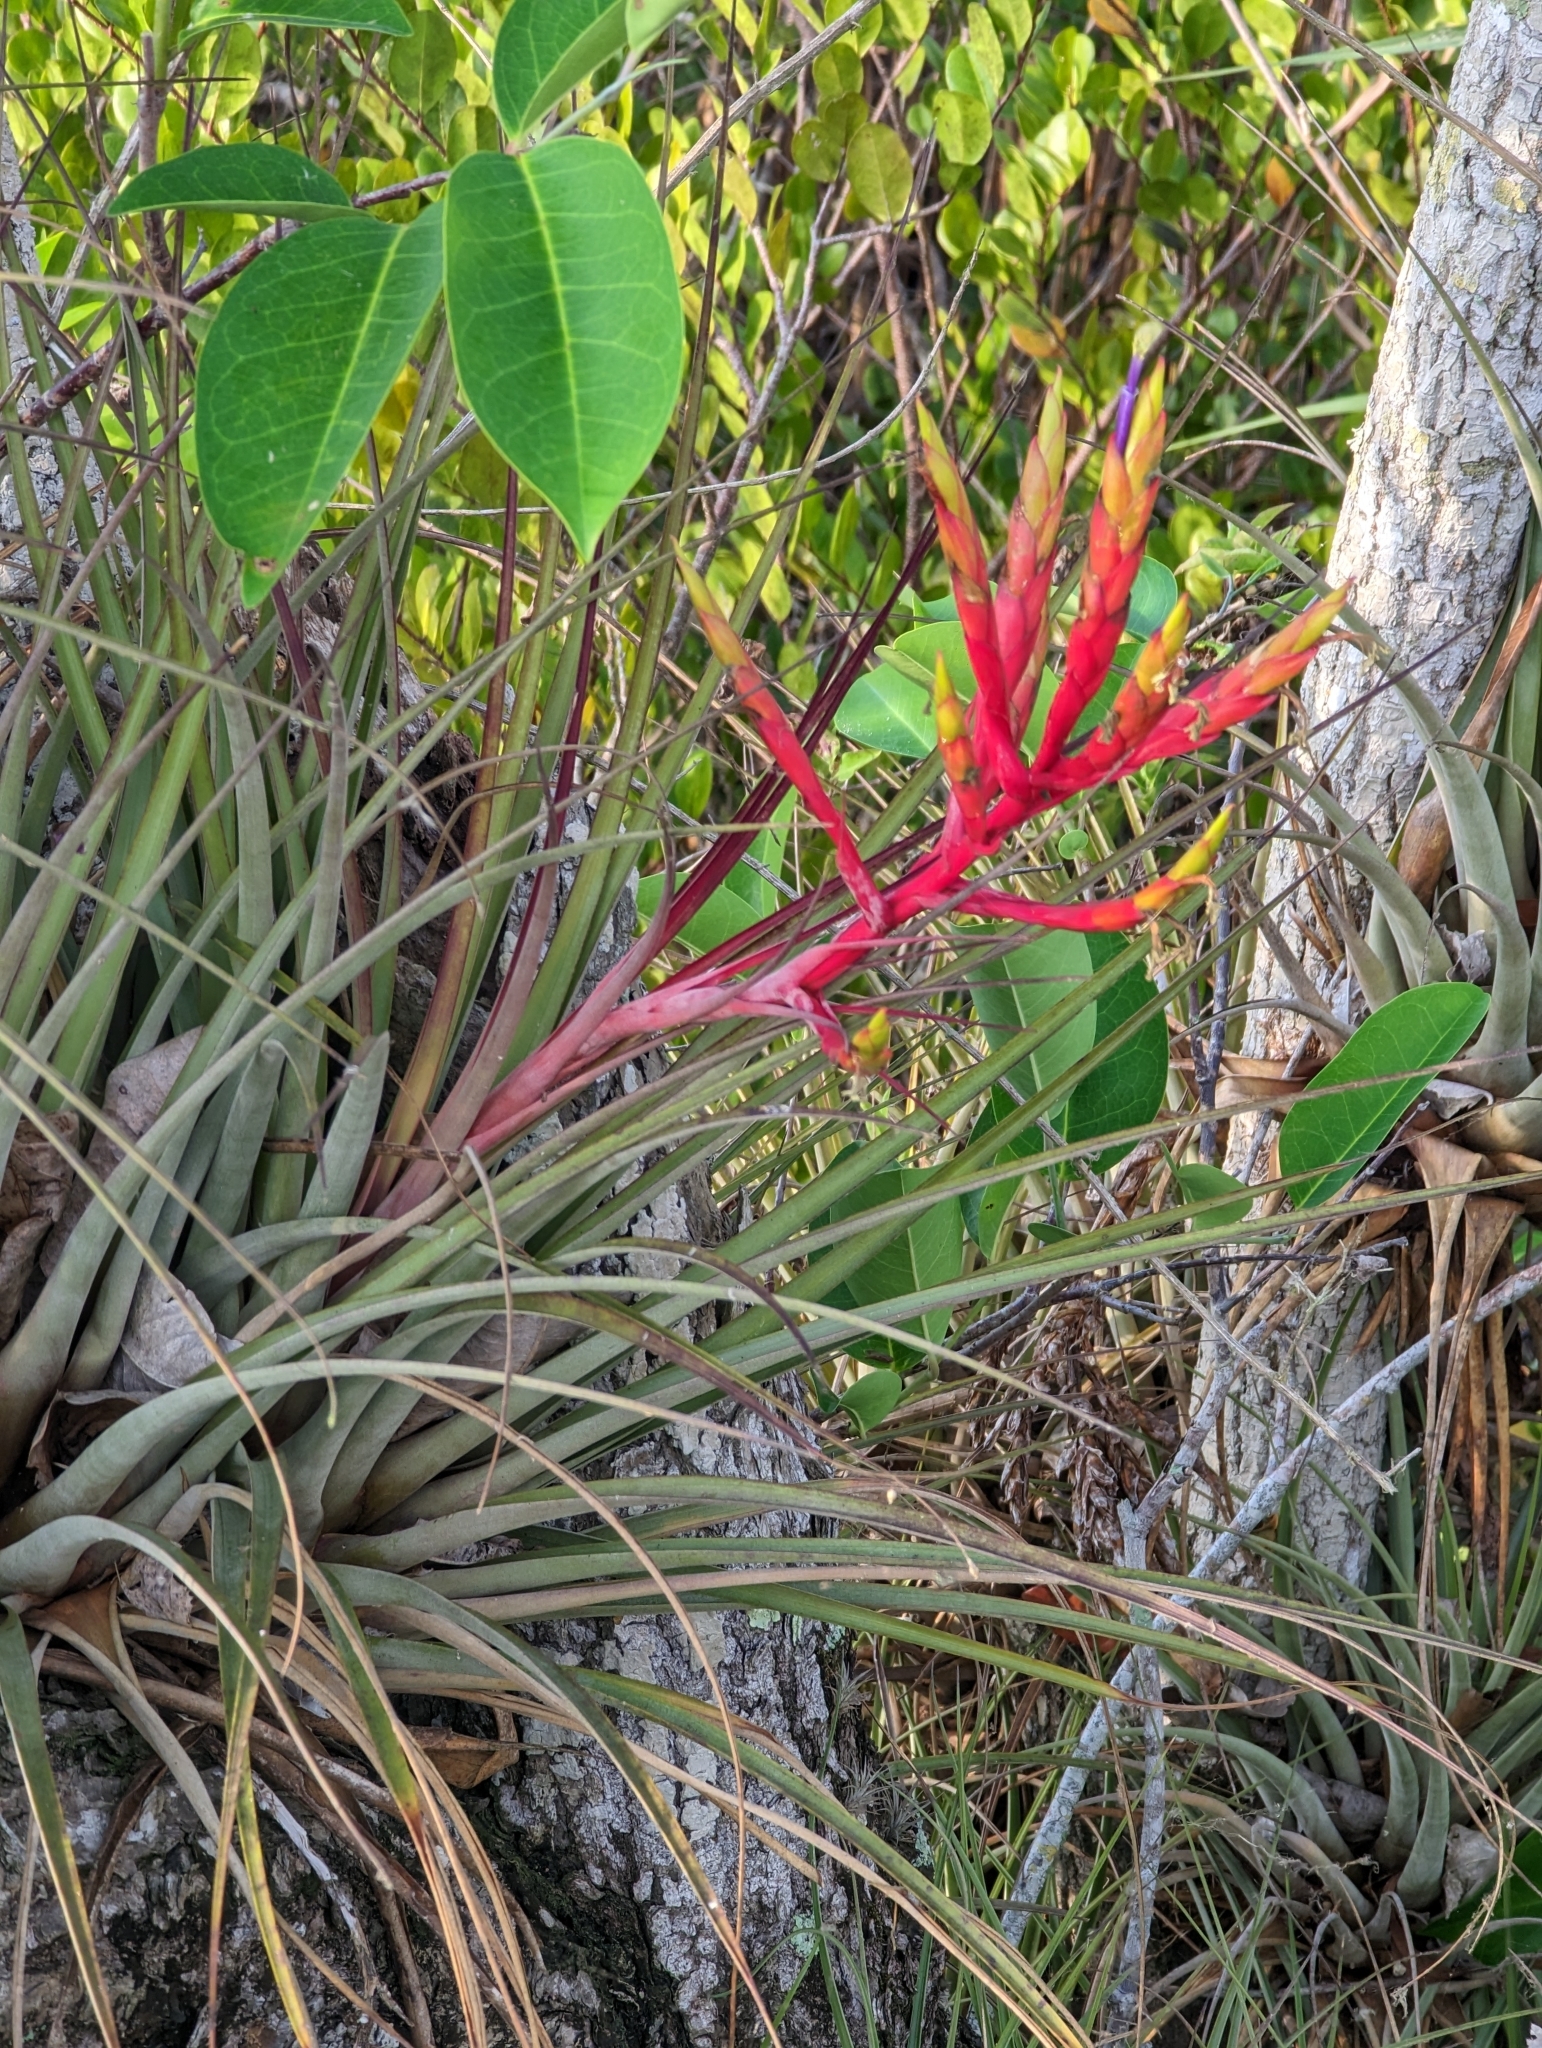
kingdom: Plantae
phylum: Tracheophyta
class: Liliopsida
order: Poales
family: Bromeliaceae
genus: Tillandsia
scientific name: Tillandsia fasciculata
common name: Giant airplant
